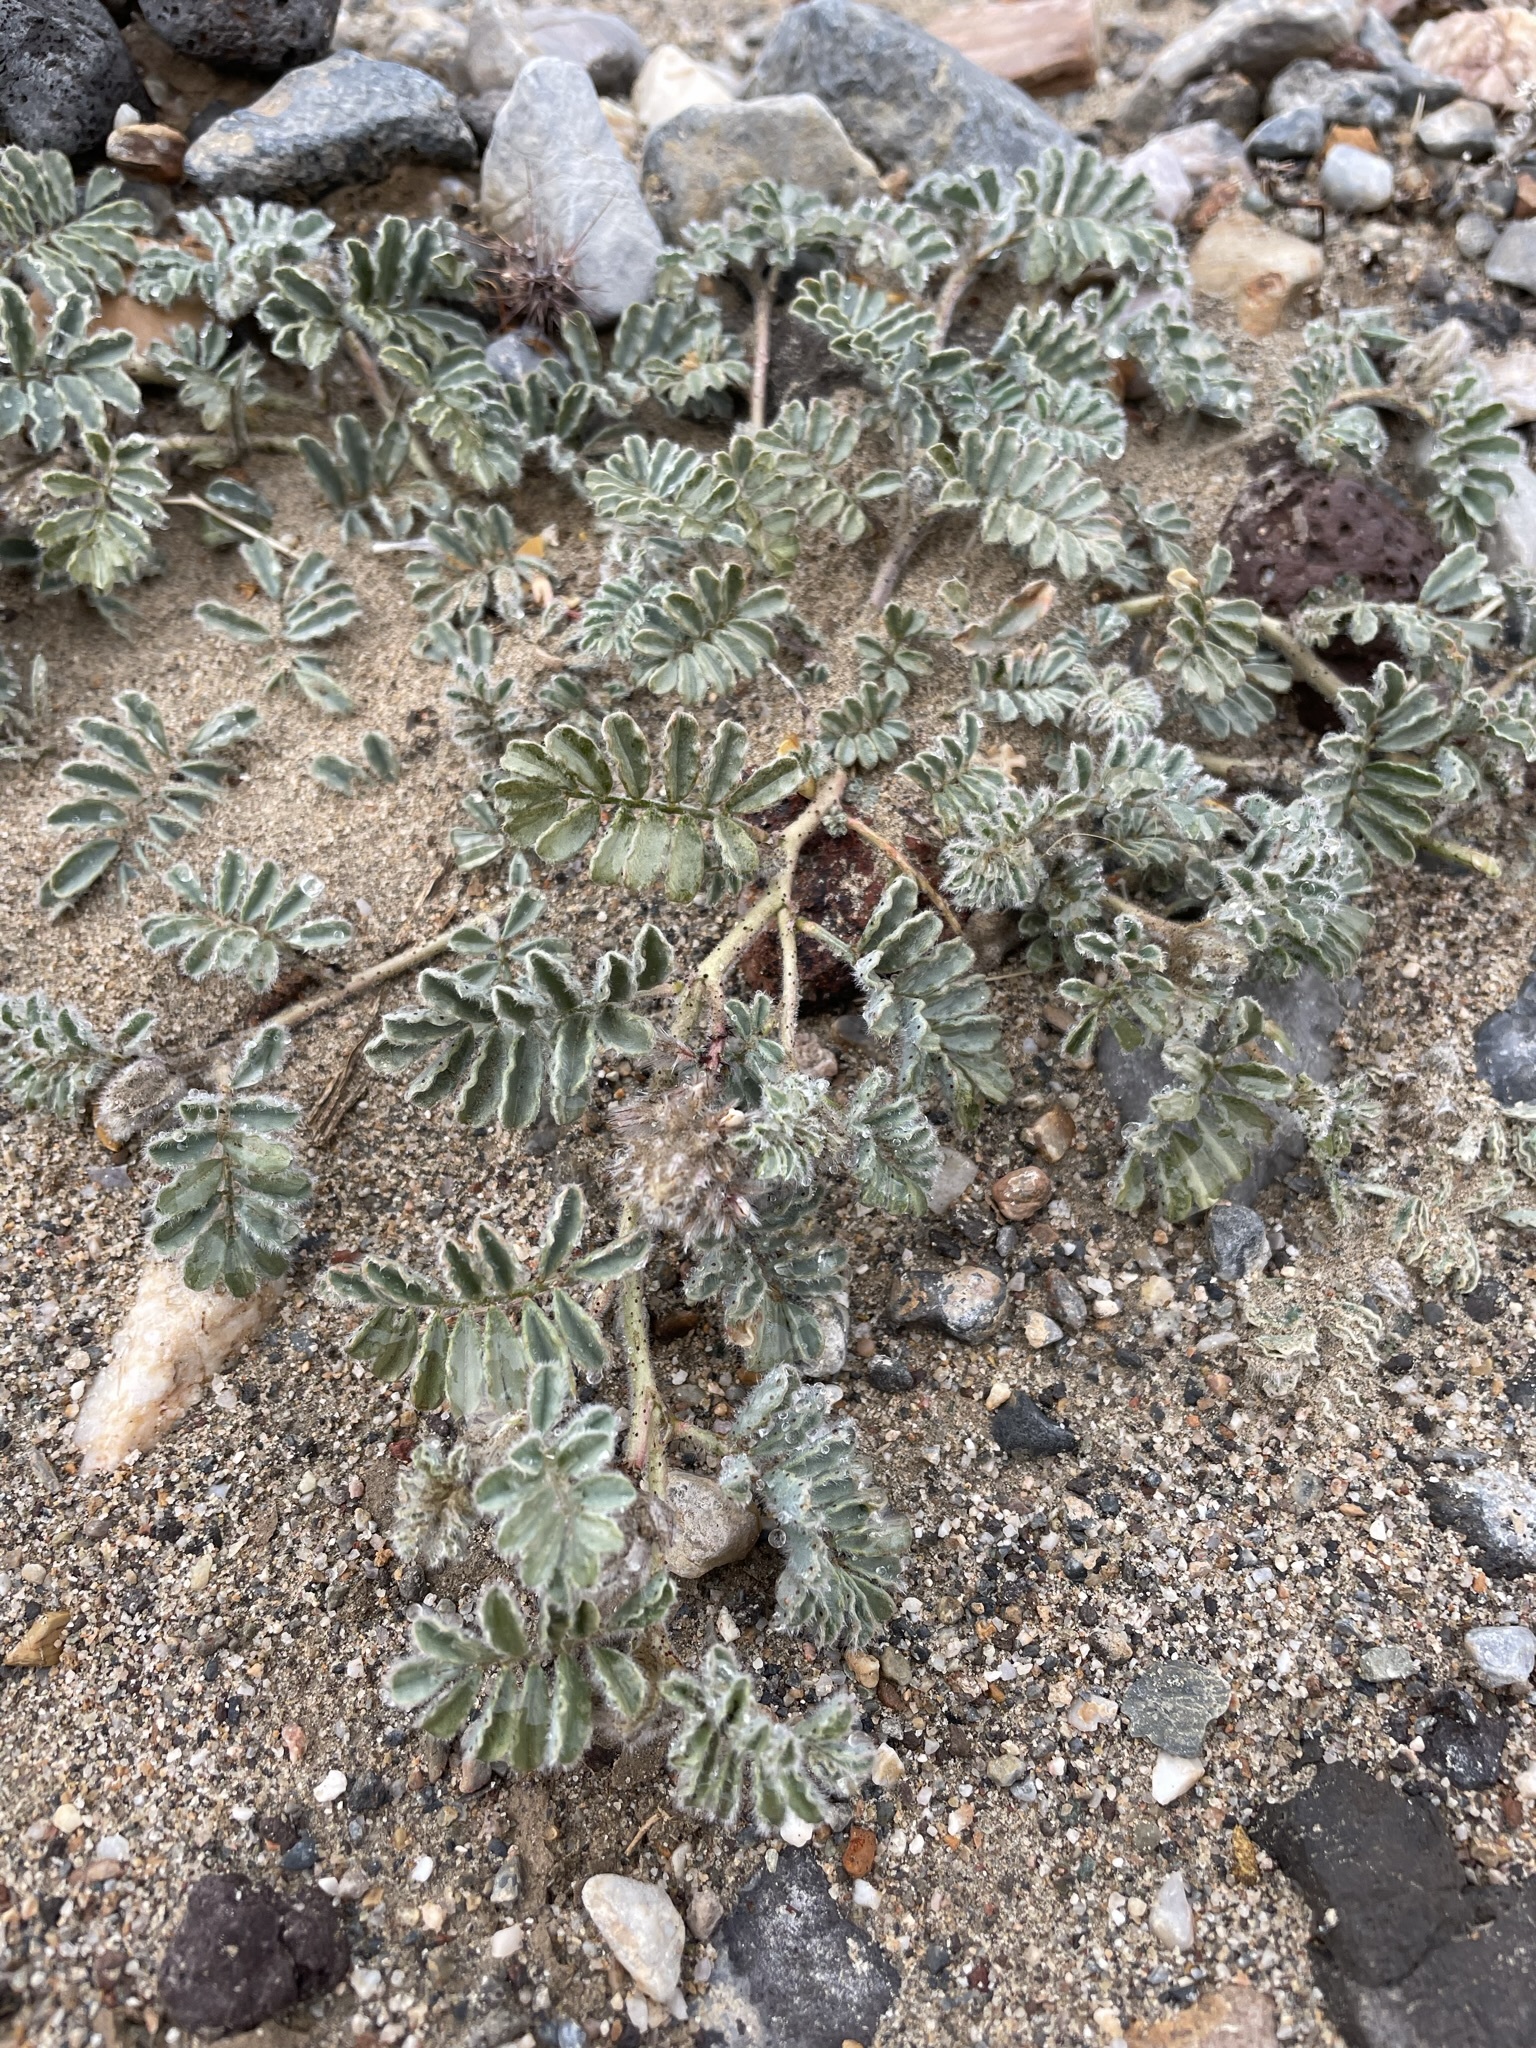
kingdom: Plantae
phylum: Tracheophyta
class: Magnoliopsida
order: Fabales
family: Fabaceae
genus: Dalea
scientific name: Dalea mollissima
